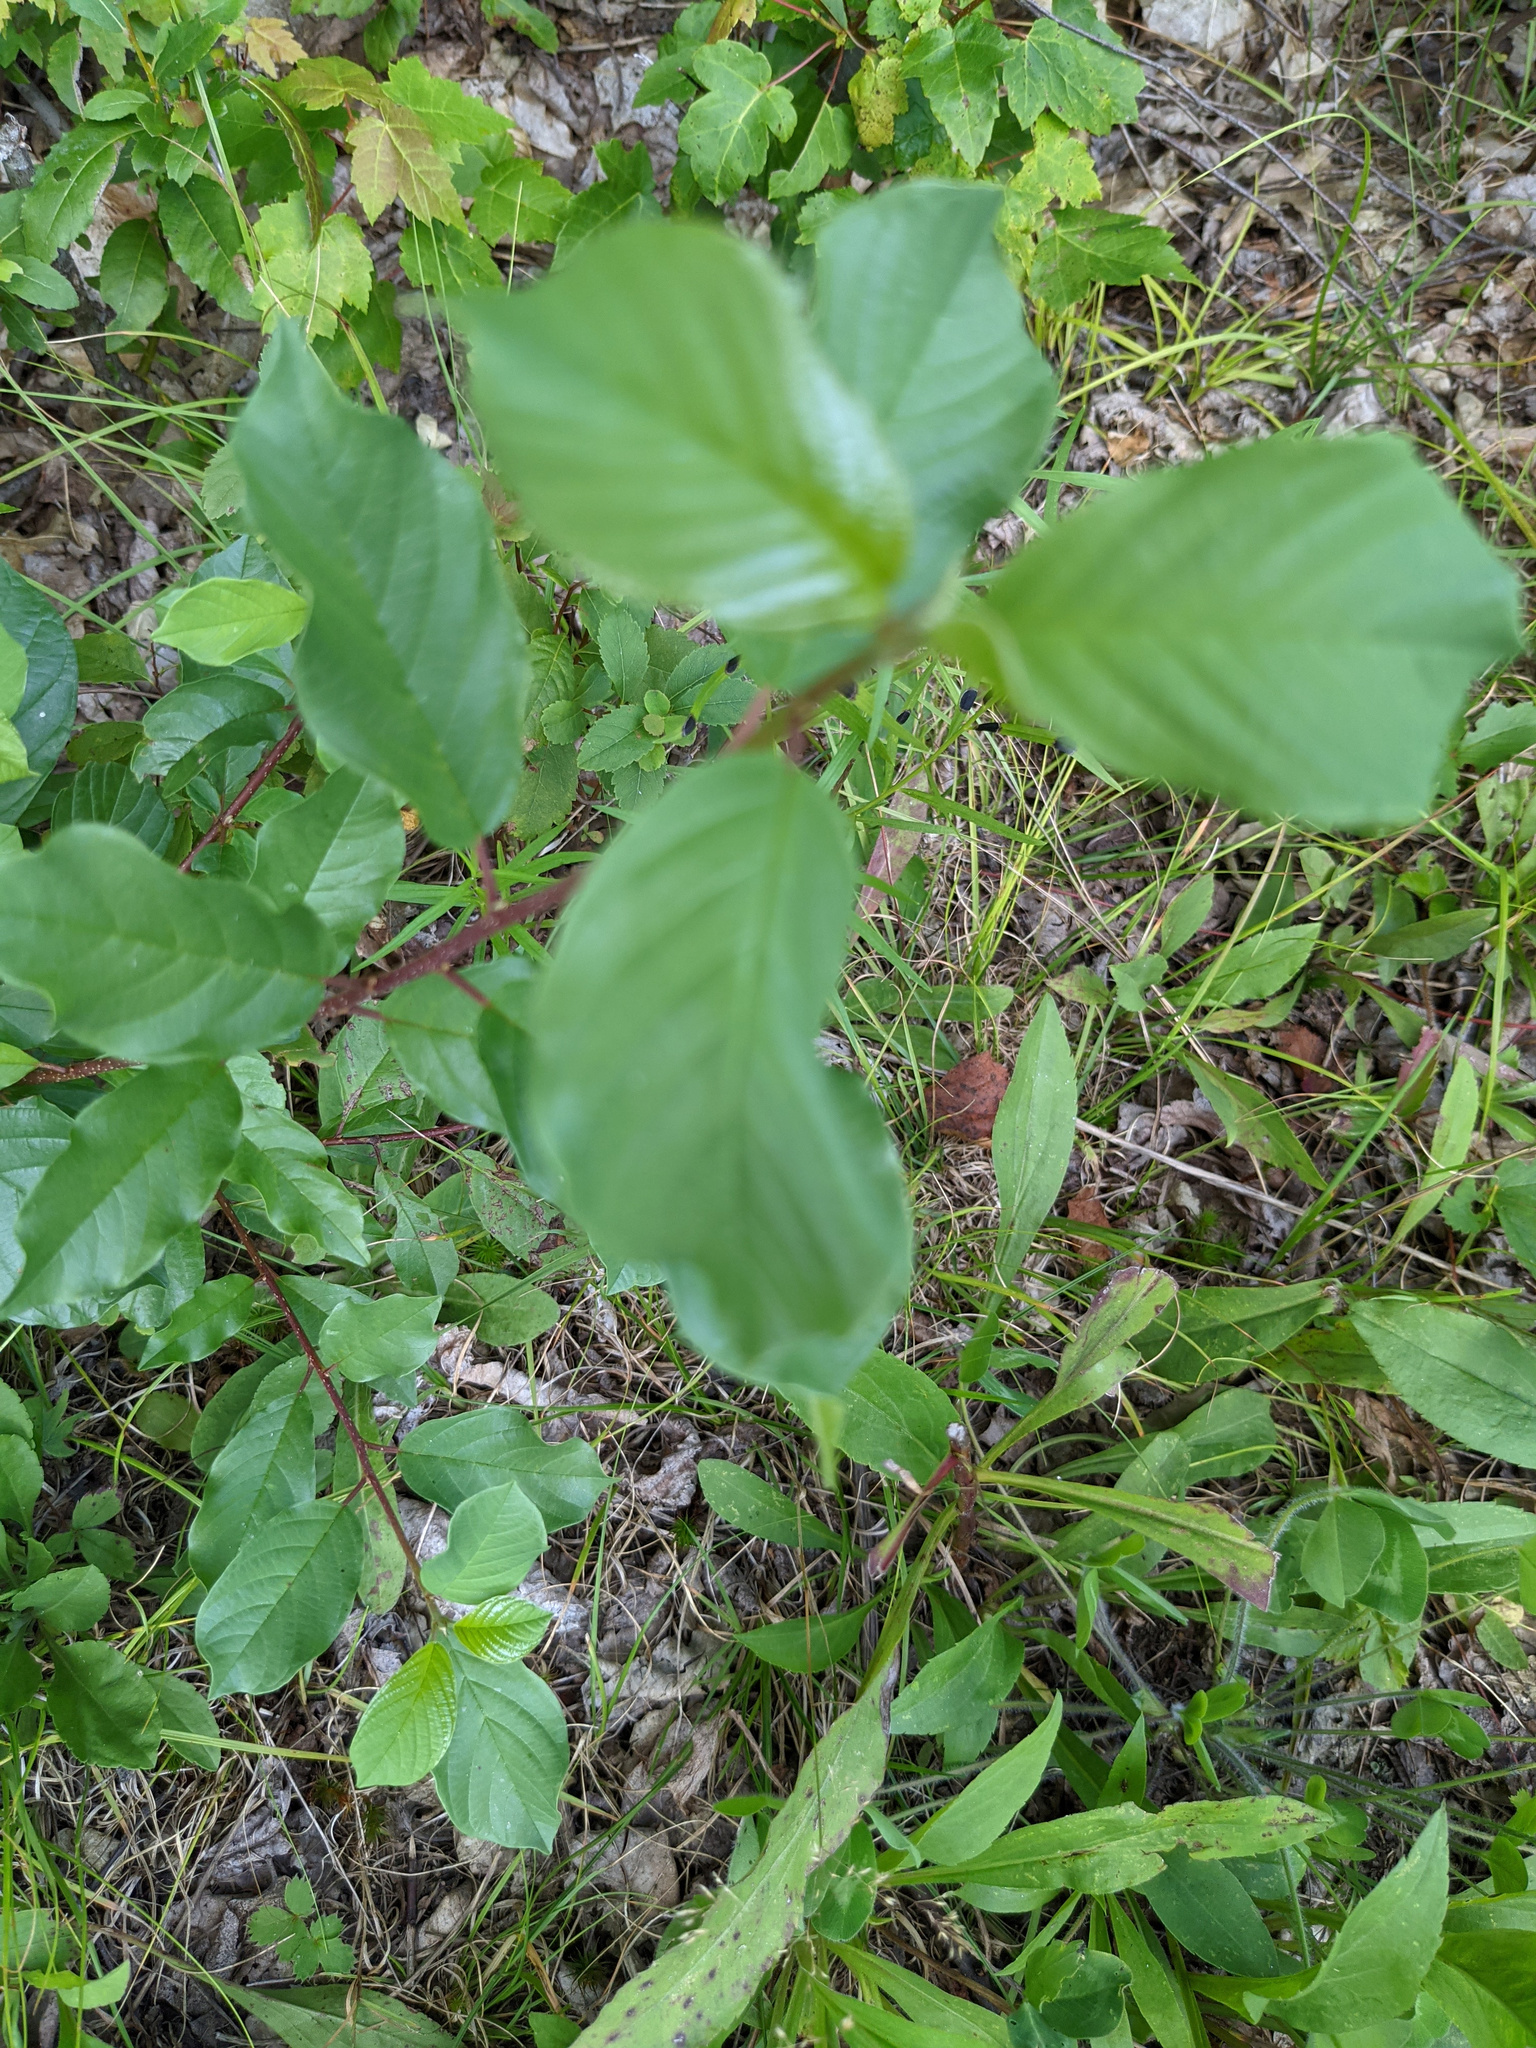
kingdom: Plantae
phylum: Tracheophyta
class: Magnoliopsida
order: Rosales
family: Rhamnaceae
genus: Frangula
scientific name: Frangula alnus
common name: Alder buckthorn
